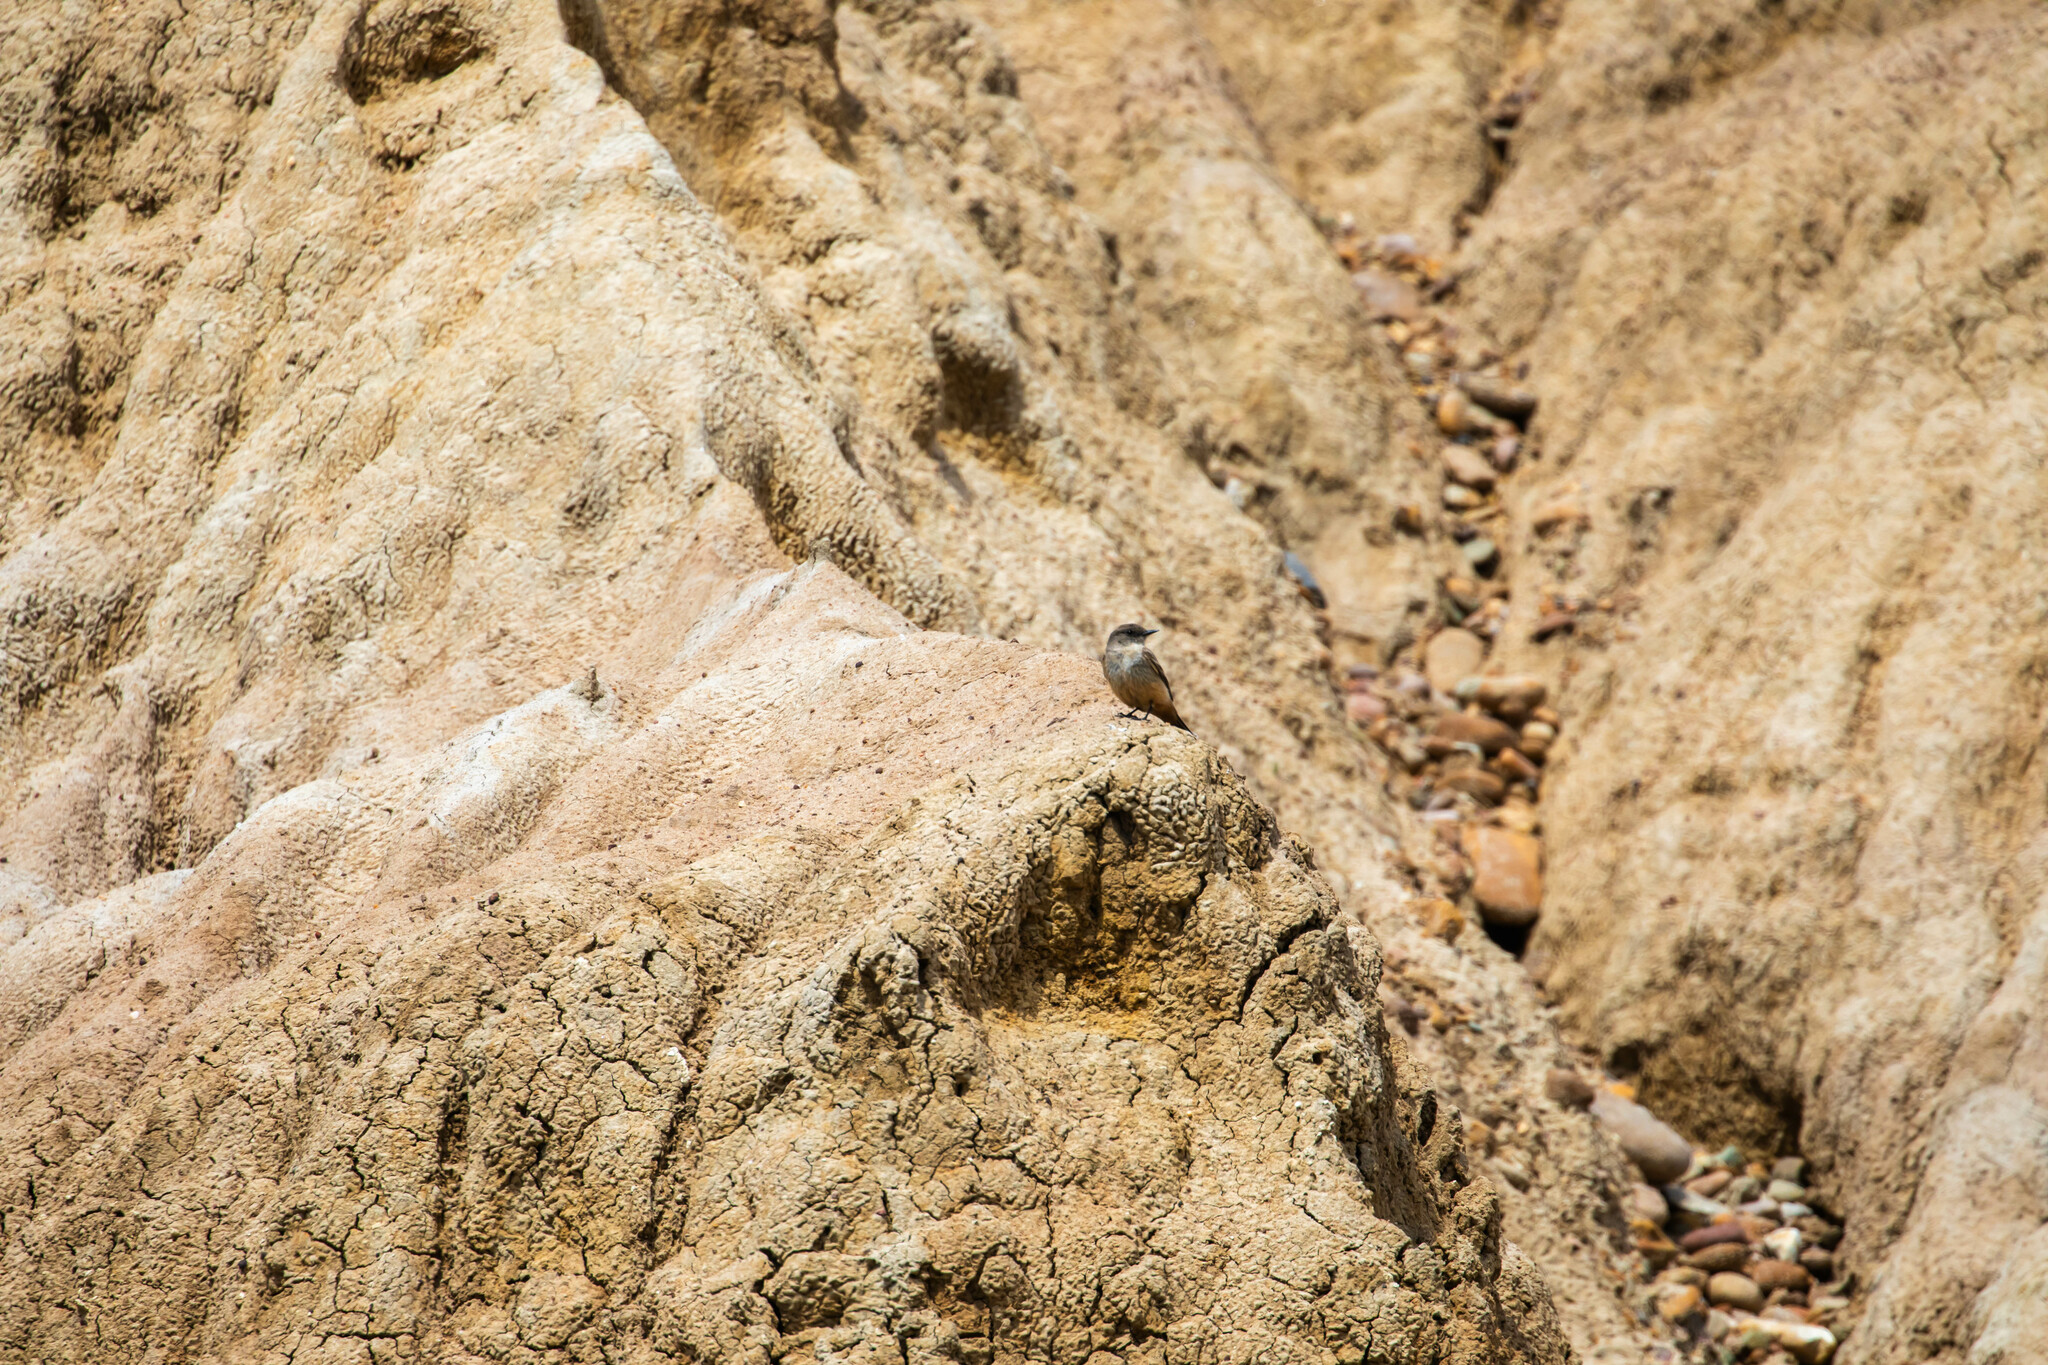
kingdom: Animalia
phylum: Chordata
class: Aves
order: Passeriformes
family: Tyrannidae
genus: Sayornis
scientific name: Sayornis saya
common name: Say's phoebe
